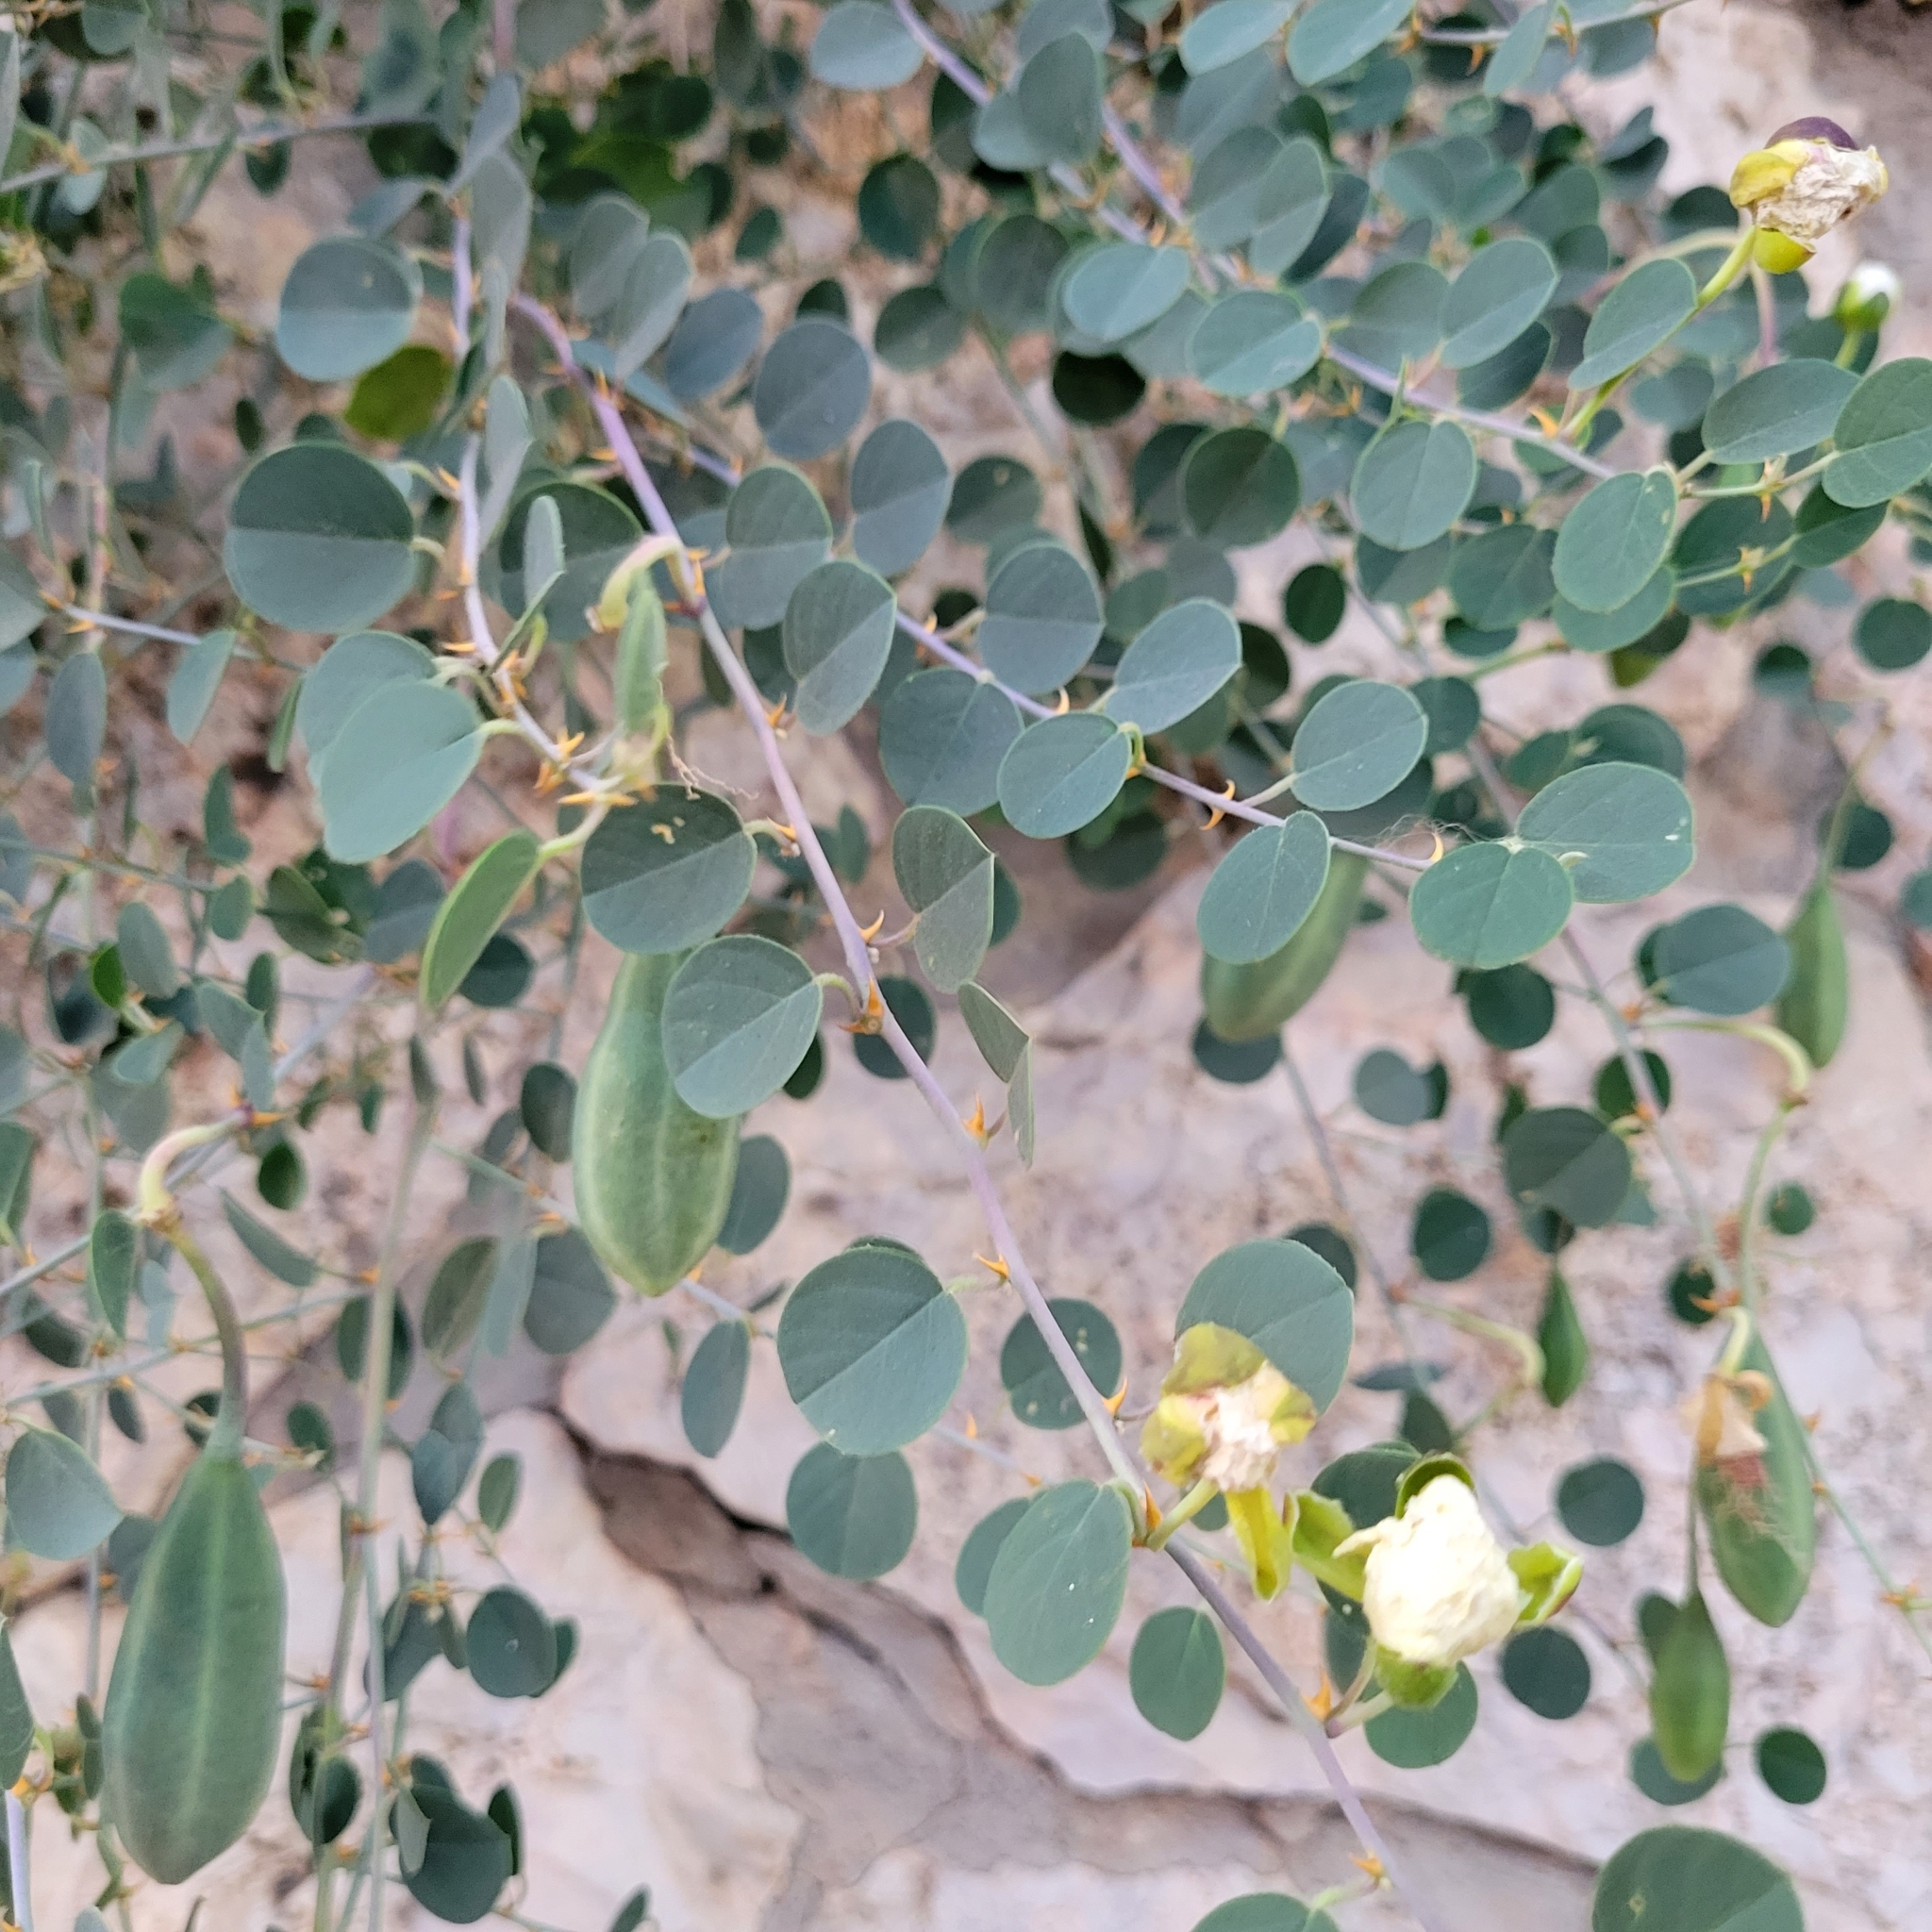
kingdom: Plantae
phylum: Tracheophyta
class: Magnoliopsida
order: Brassicales
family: Capparaceae
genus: Capparis
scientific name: Capparis spinosa
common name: Caper
